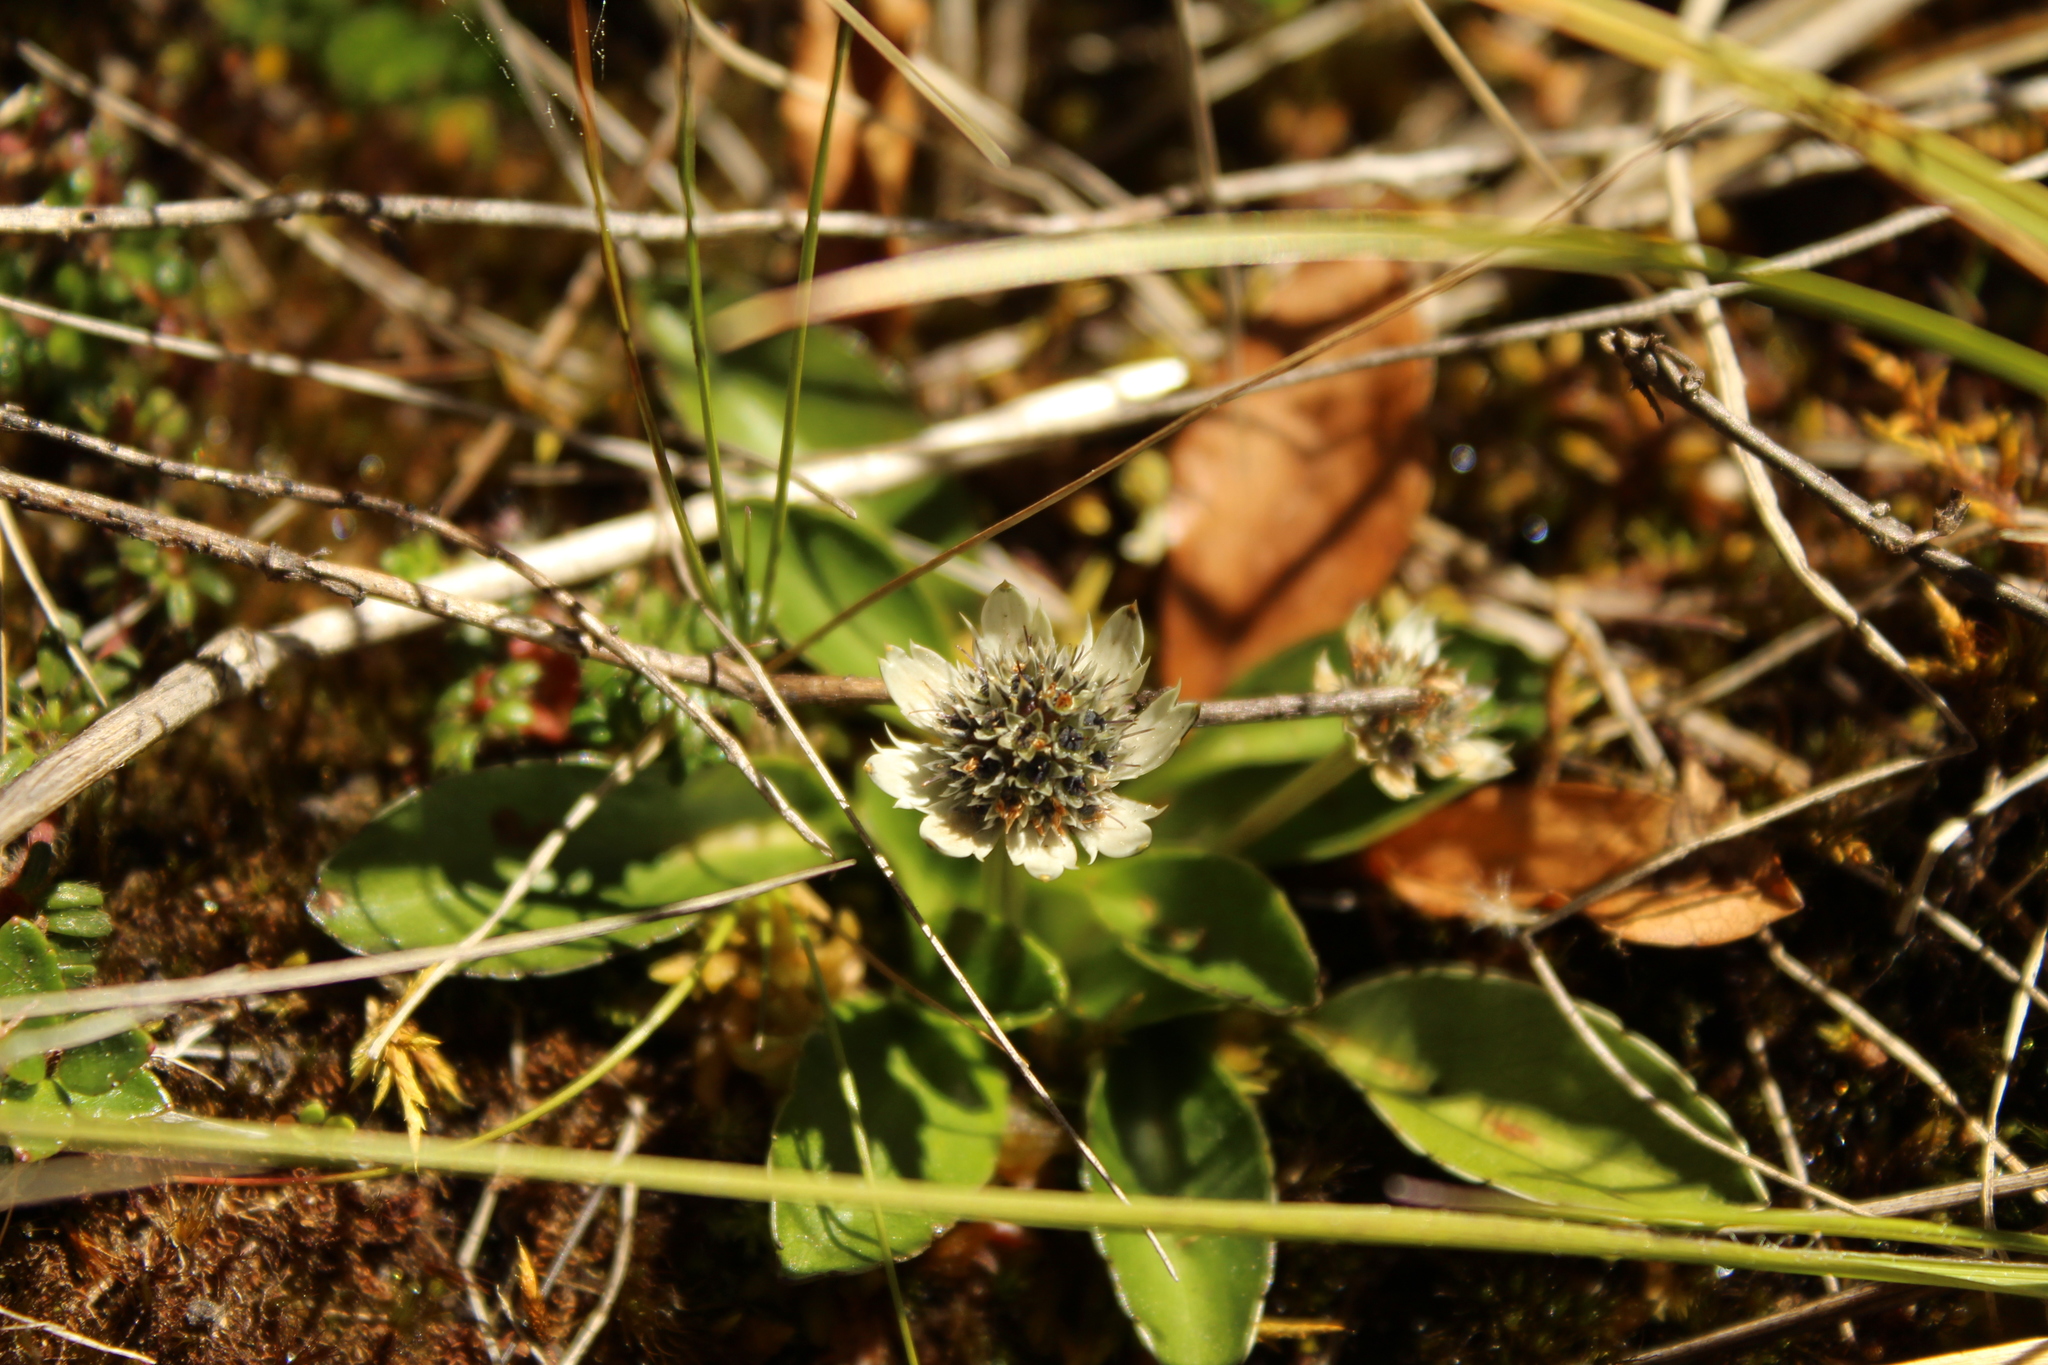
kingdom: Plantae
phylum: Tracheophyta
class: Magnoliopsida
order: Apiales
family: Apiaceae
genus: Eryngium
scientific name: Eryngium humile
